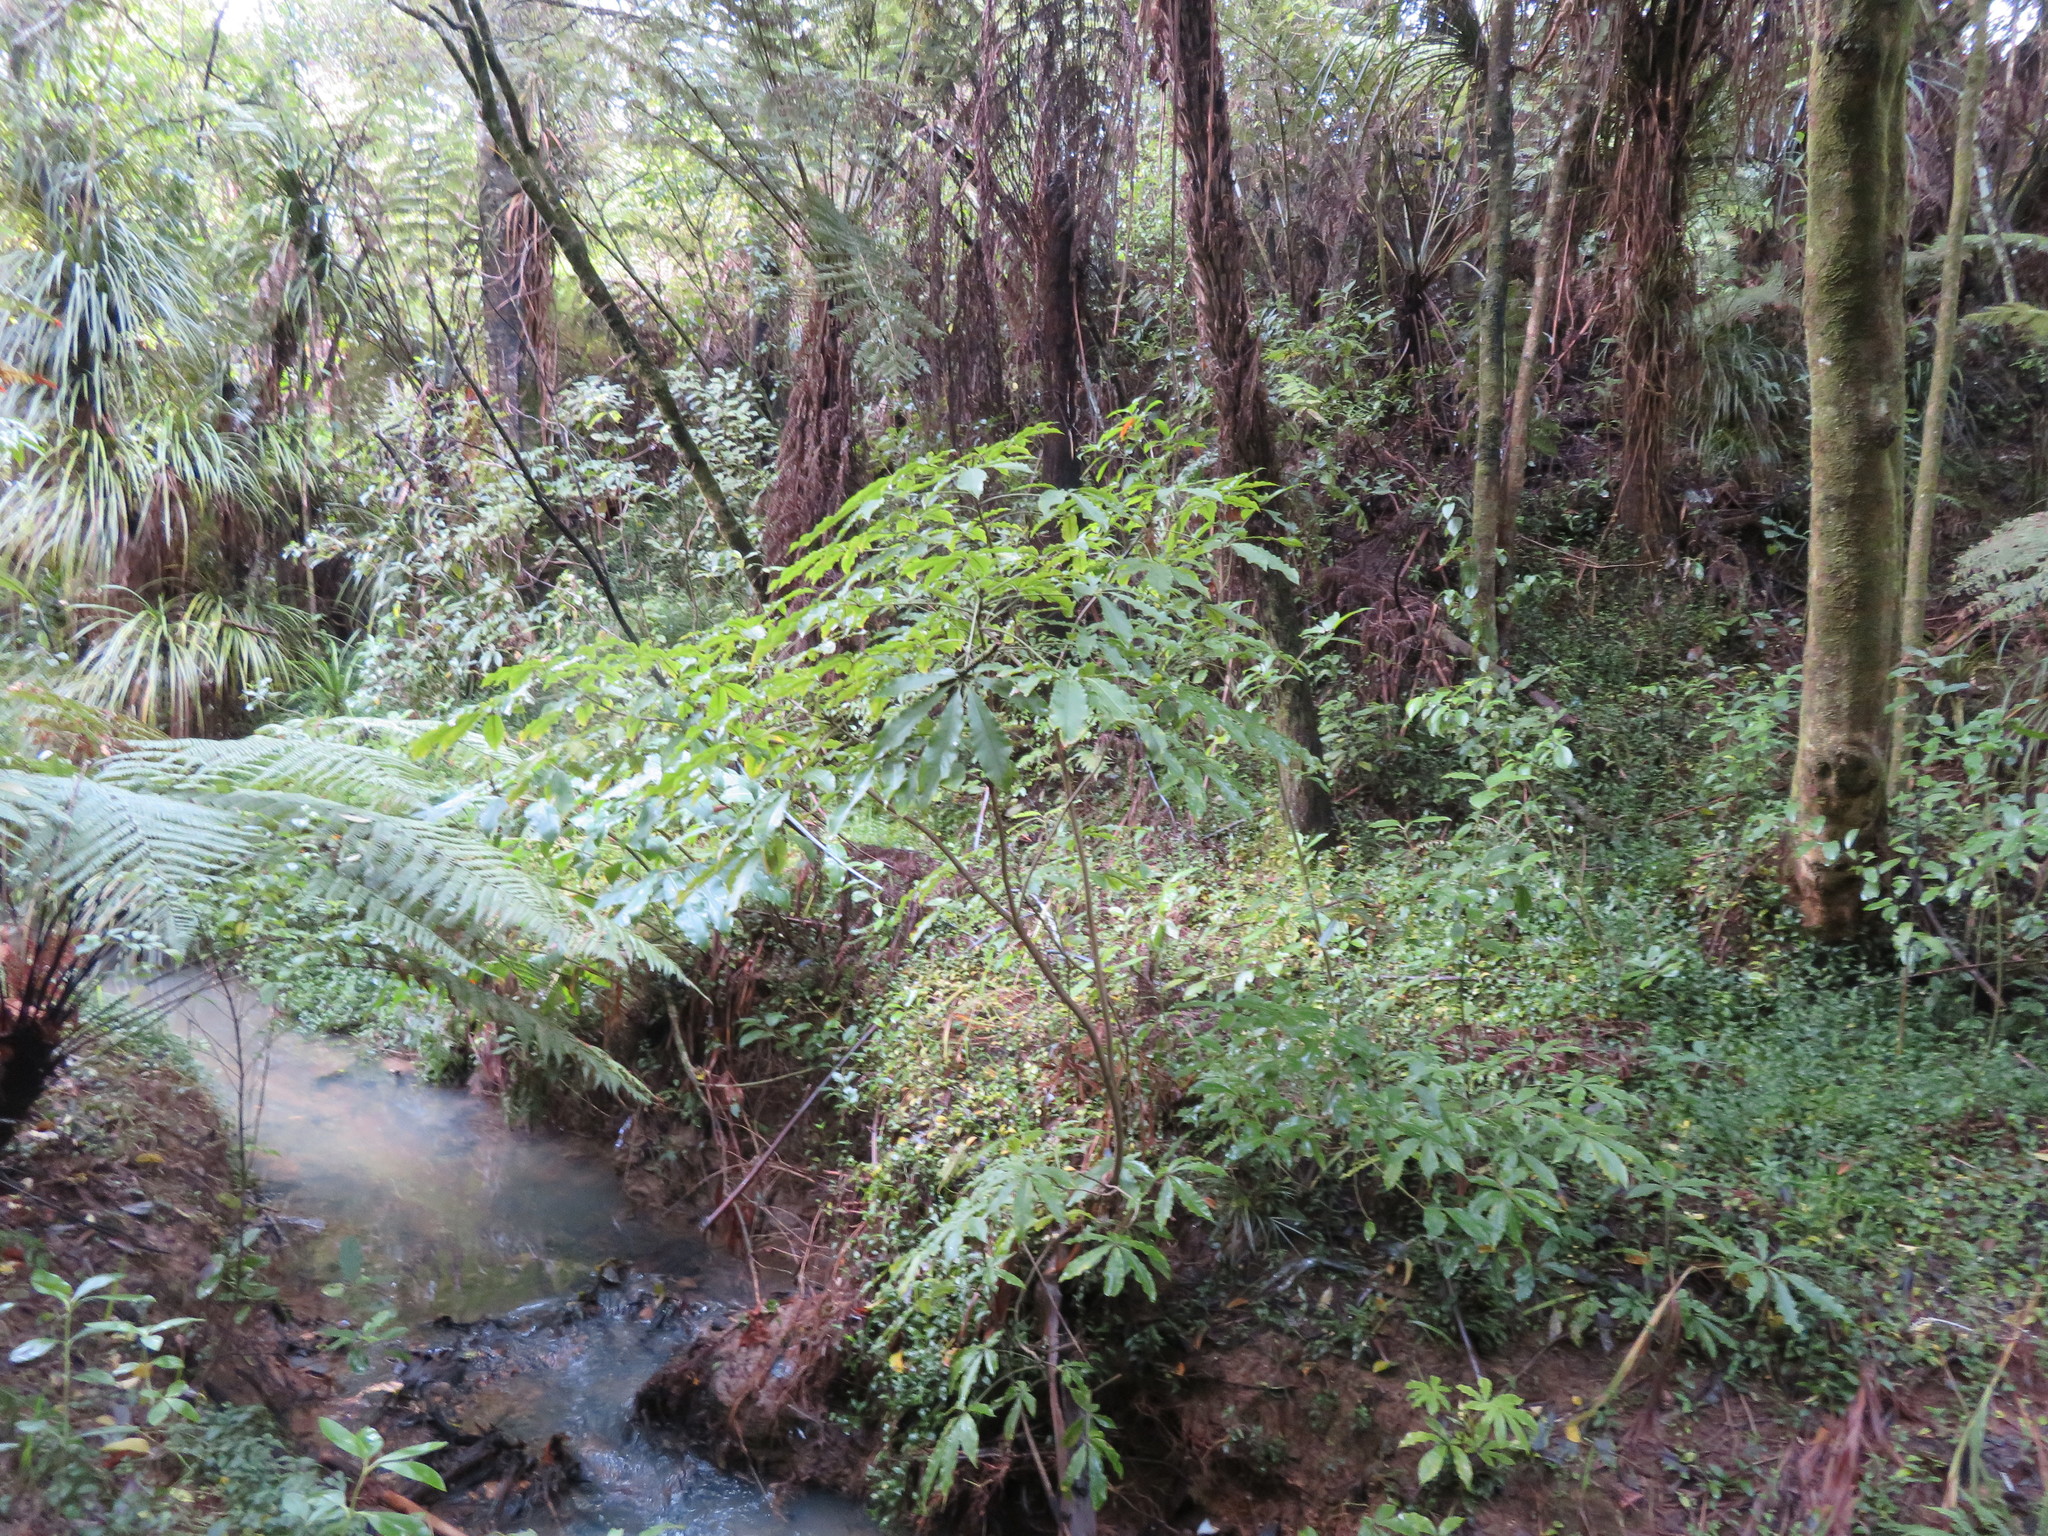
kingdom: Plantae
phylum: Tracheophyta
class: Magnoliopsida
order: Apiales
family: Araliaceae
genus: Schefflera
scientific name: Schefflera digitata
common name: Pate
